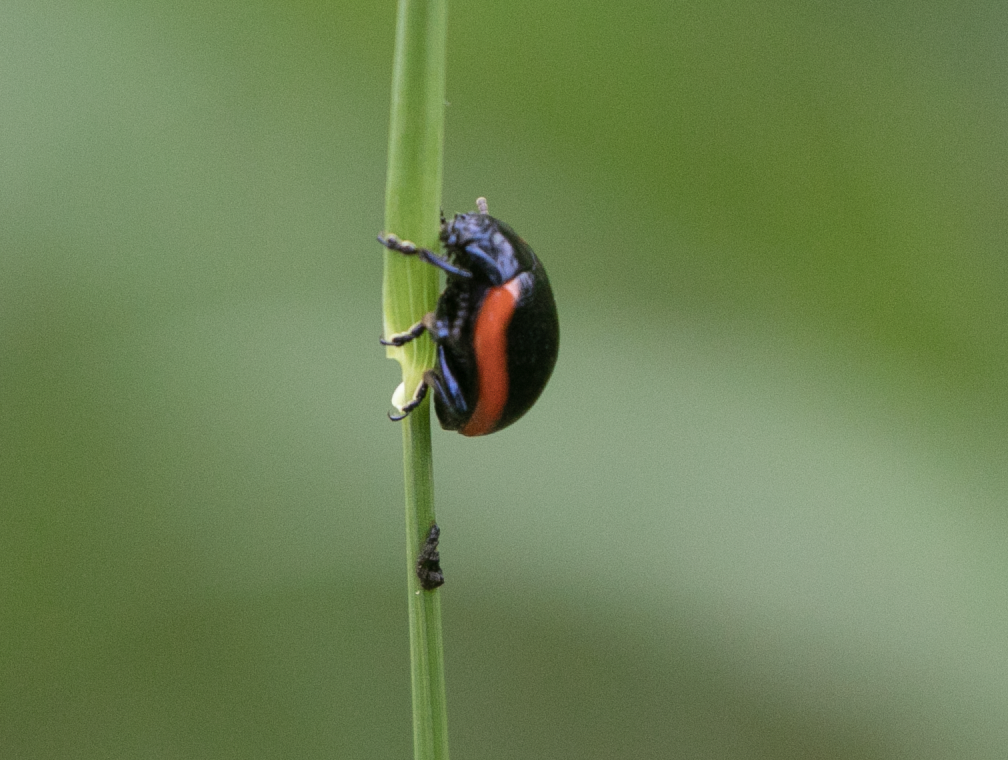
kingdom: Animalia
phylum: Arthropoda
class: Insecta
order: Coleoptera
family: Chrysomelidae
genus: Chrysolina
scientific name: Chrysolina rossia
